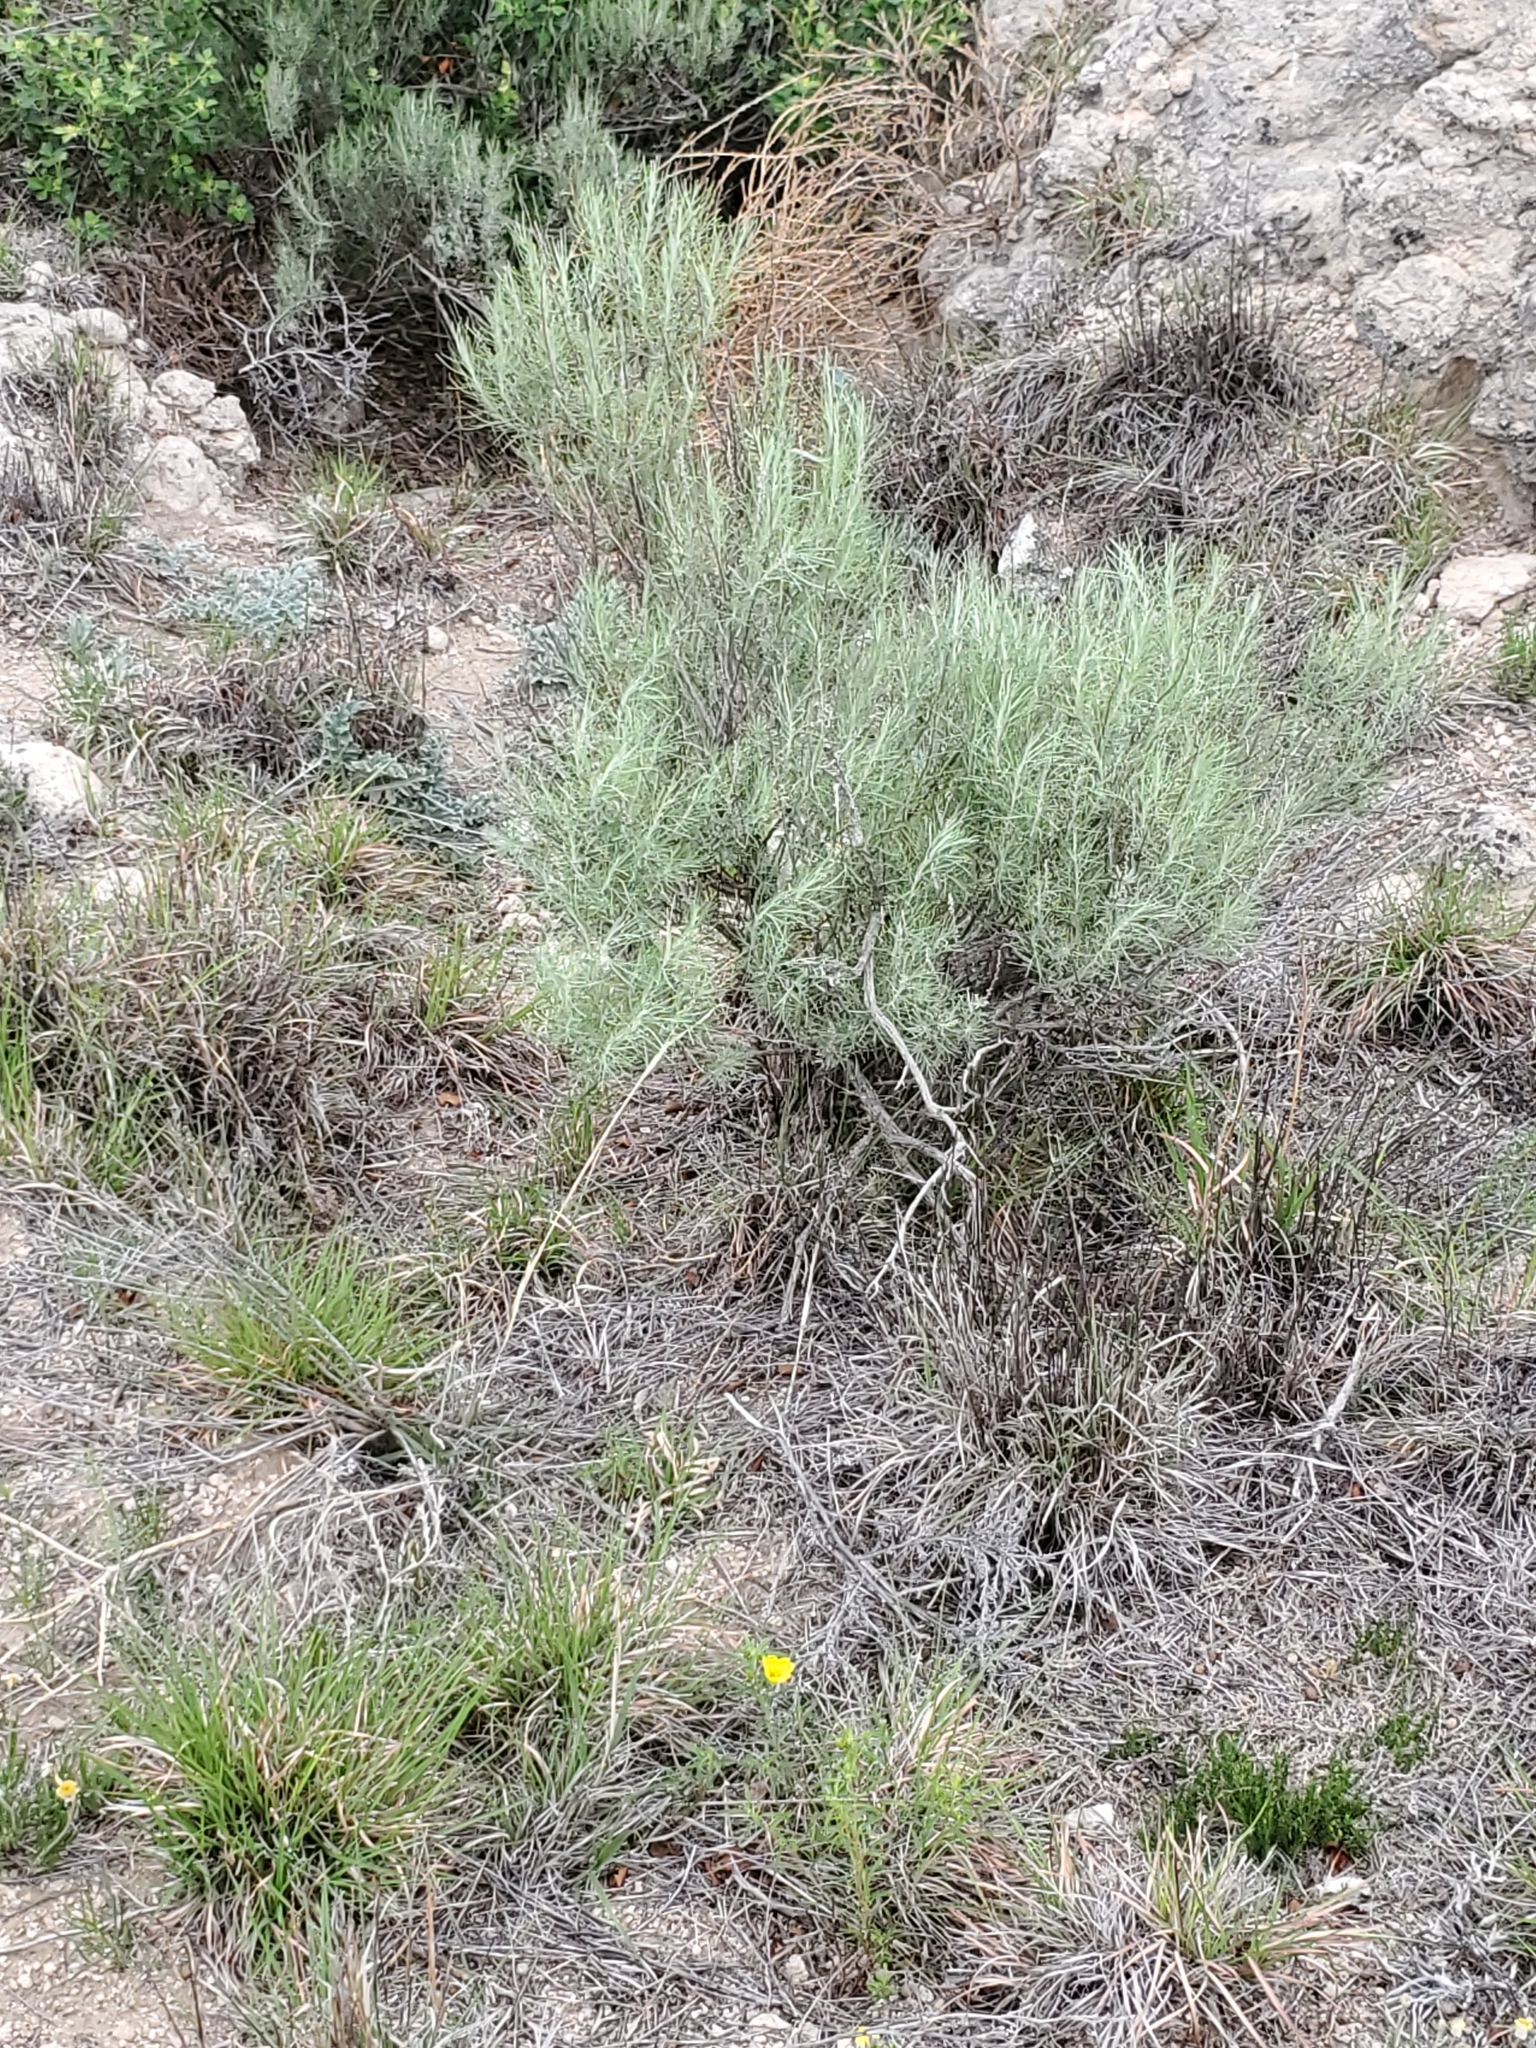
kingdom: Plantae
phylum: Tracheophyta
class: Magnoliopsida
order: Asterales
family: Asteraceae
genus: Artemisia
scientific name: Artemisia filifolia
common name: Sand-sage
